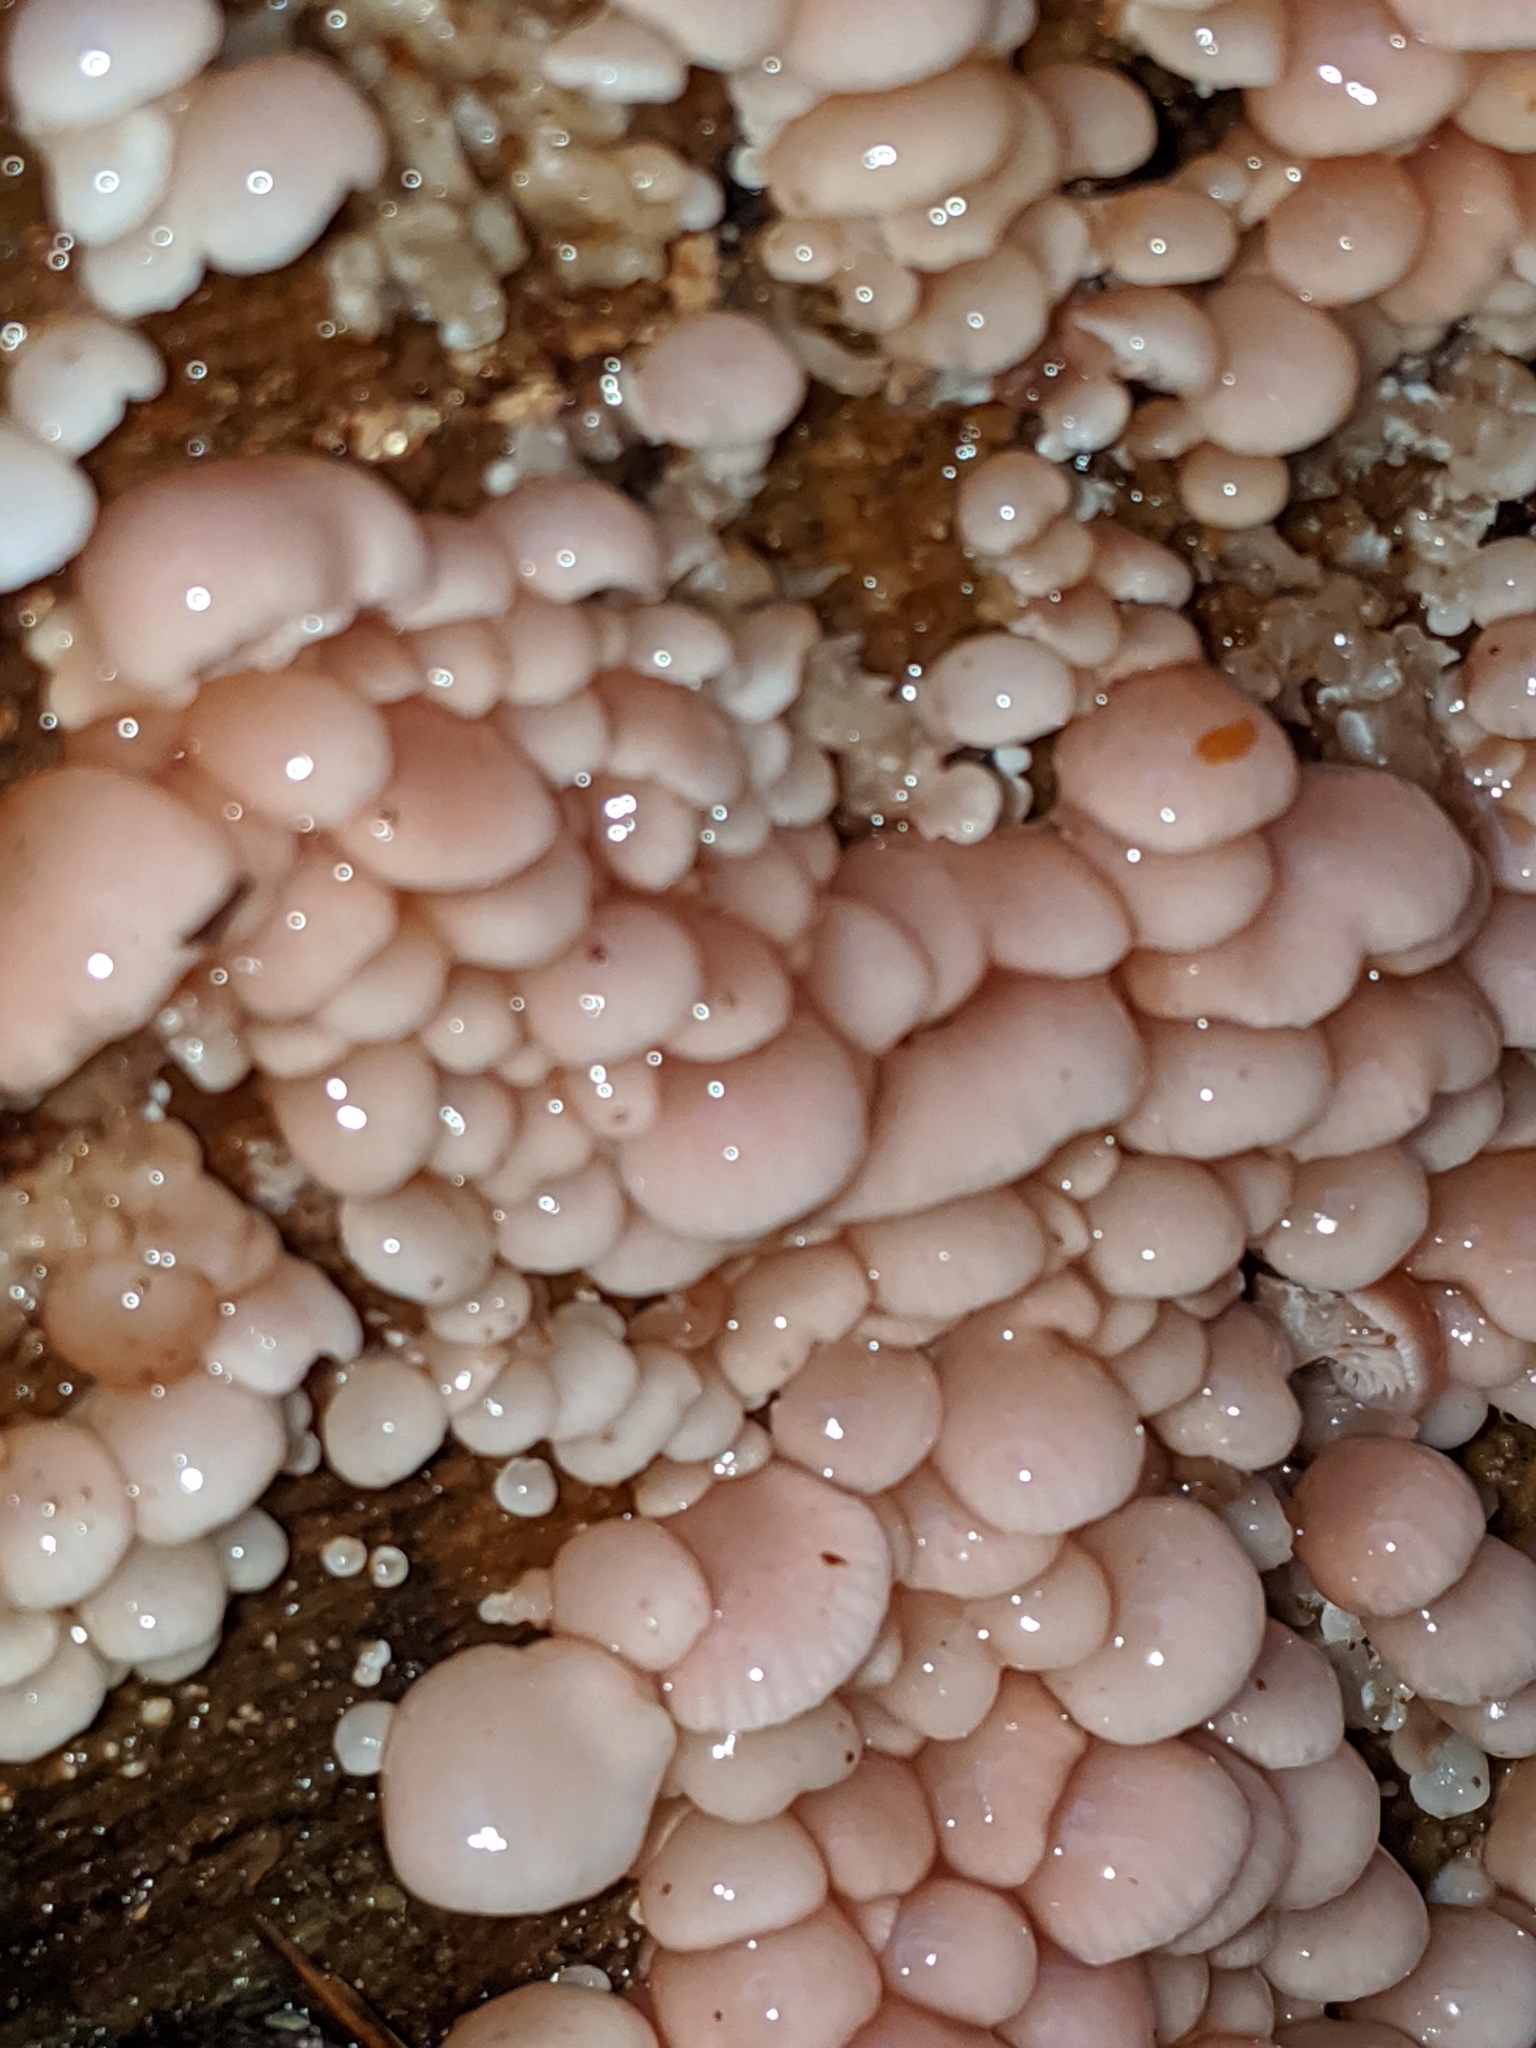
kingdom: Fungi
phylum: Basidiomycota
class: Agaricomycetes
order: Agaricales
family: Mycenaceae
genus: Panellus
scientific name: Panellus longinquus
